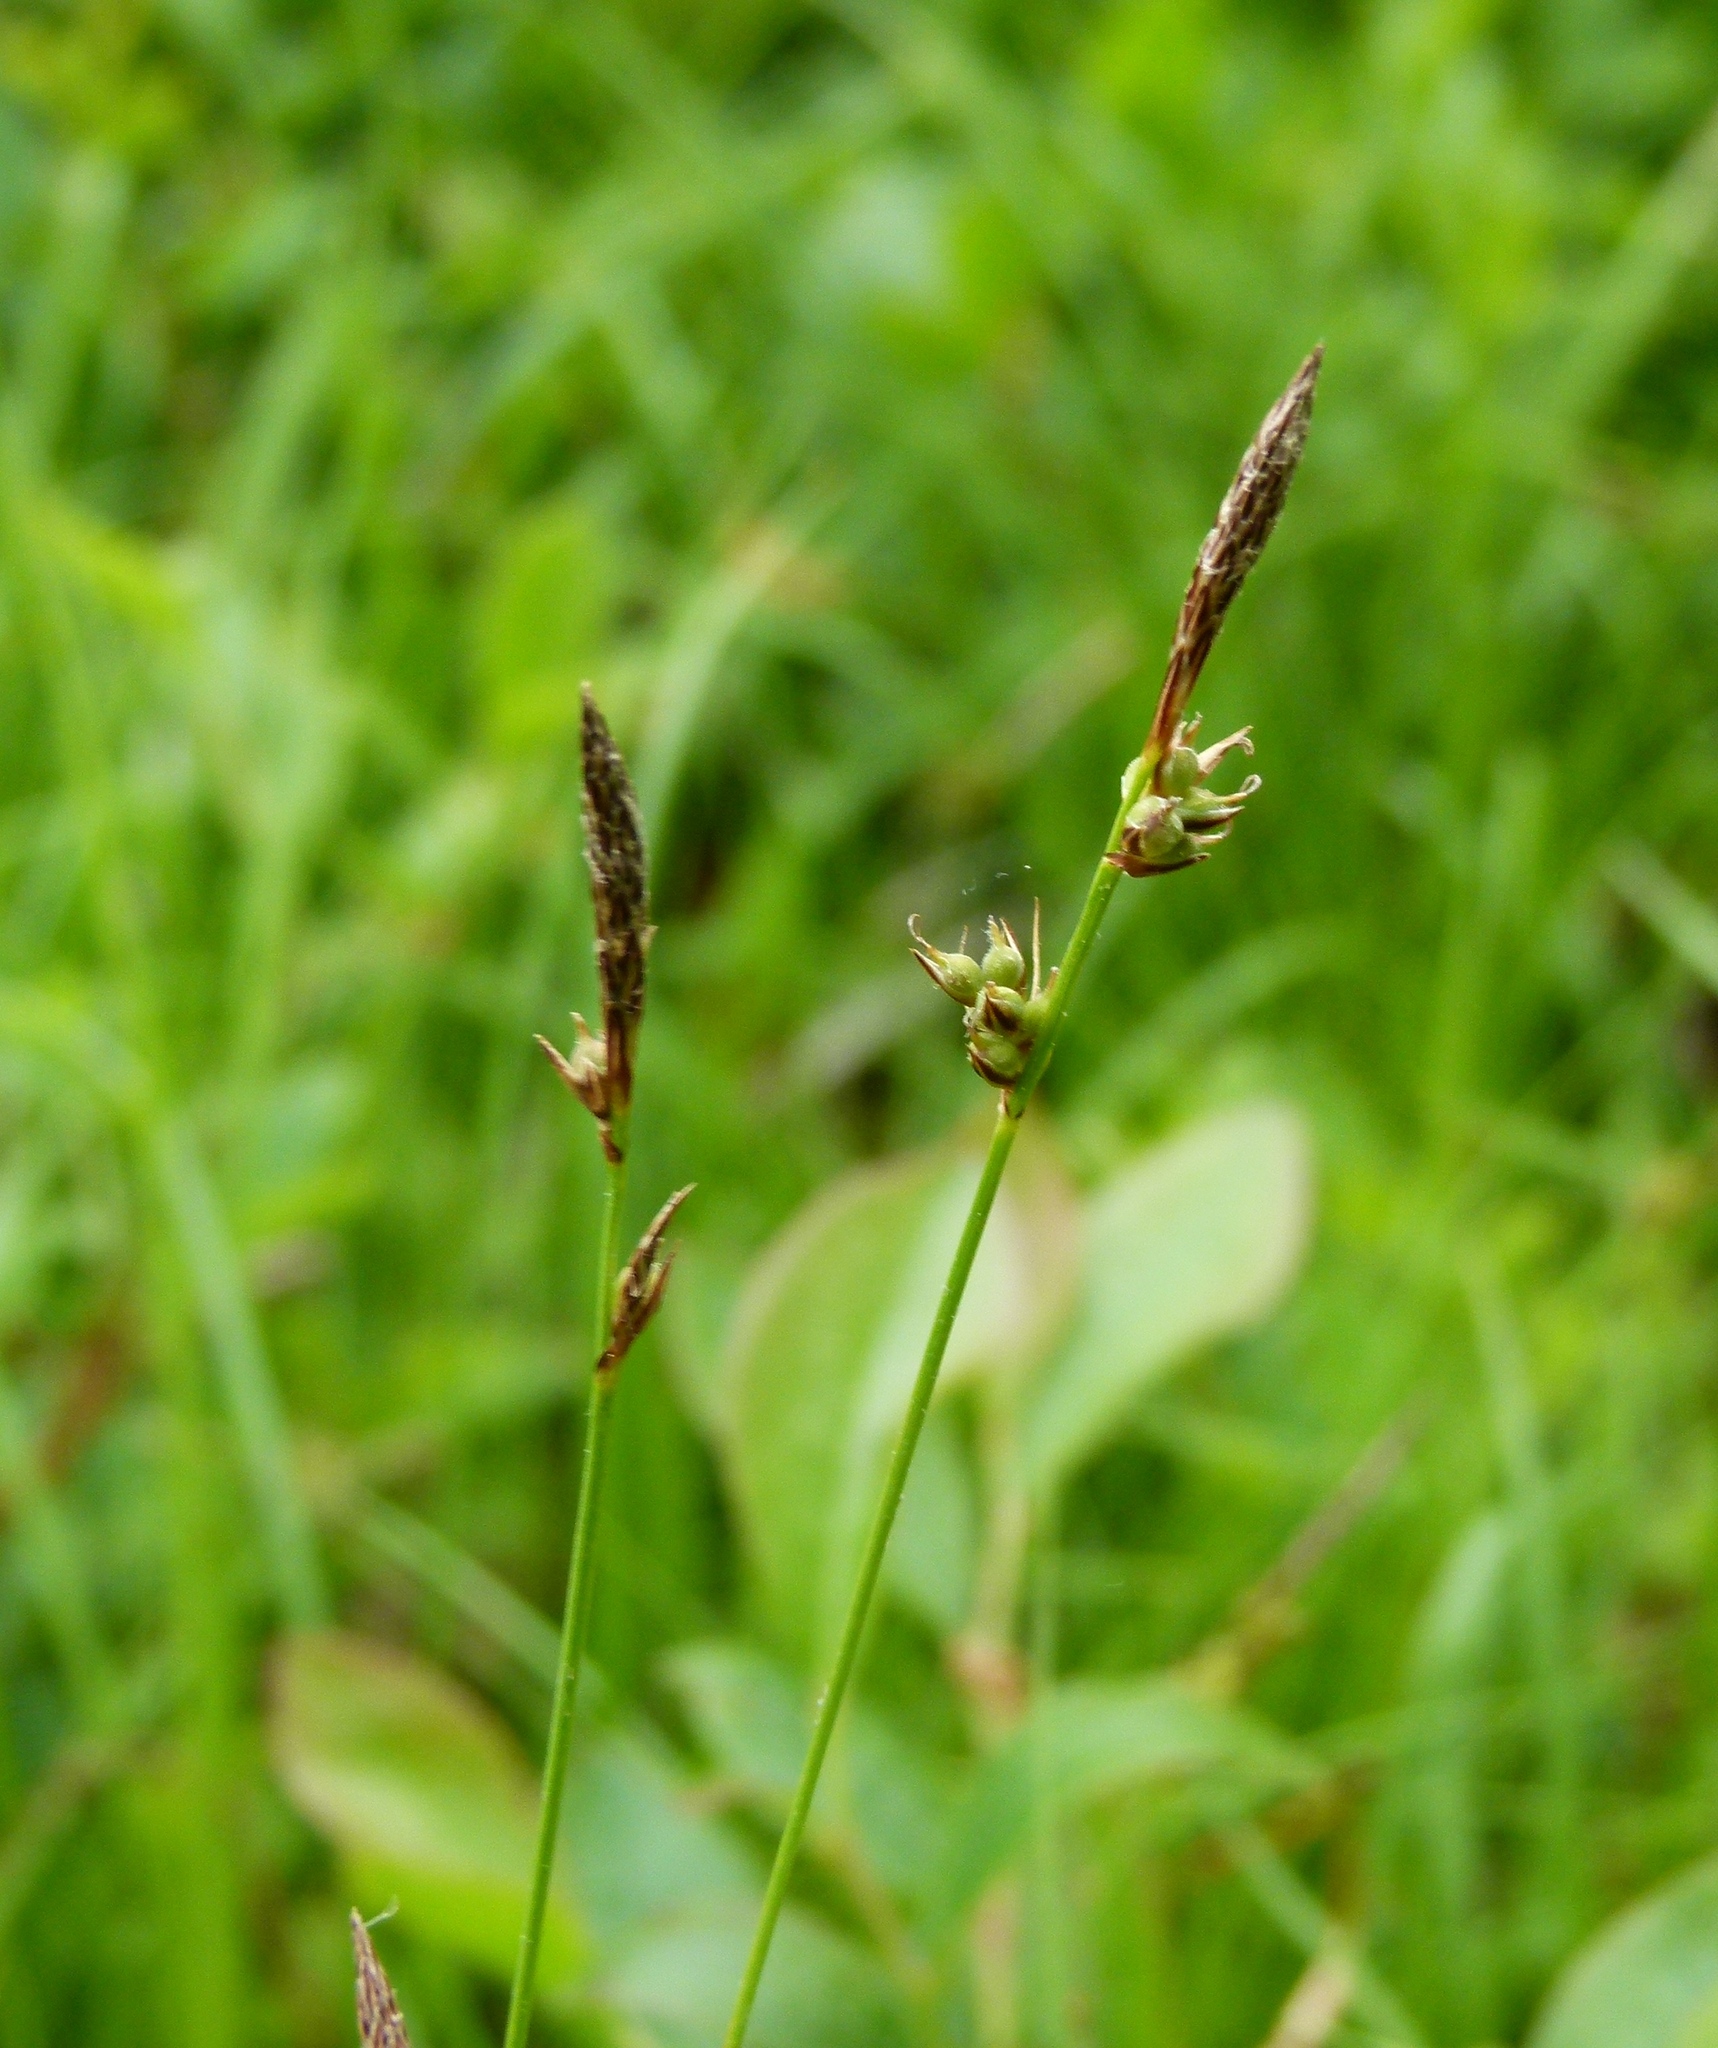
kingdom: Plantae
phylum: Tracheophyta
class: Liliopsida
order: Poales
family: Cyperaceae
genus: Carex
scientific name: Carex lucorum
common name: Blue ridge sedge
